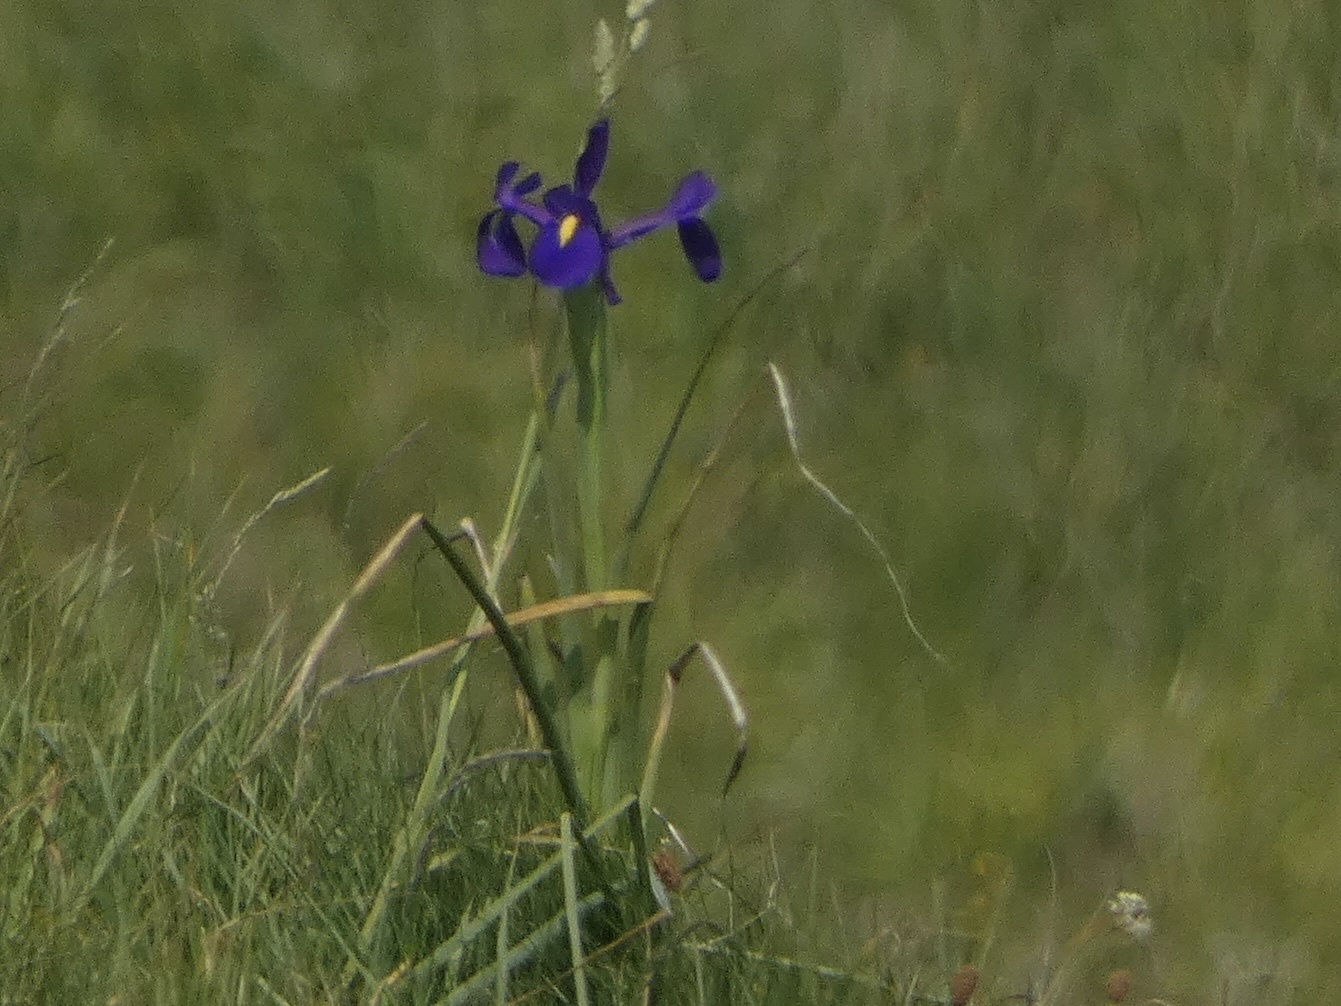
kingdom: Plantae
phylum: Tracheophyta
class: Liliopsida
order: Asparagales
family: Iridaceae
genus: Iris
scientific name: Iris hollandica
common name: Dutch iris
